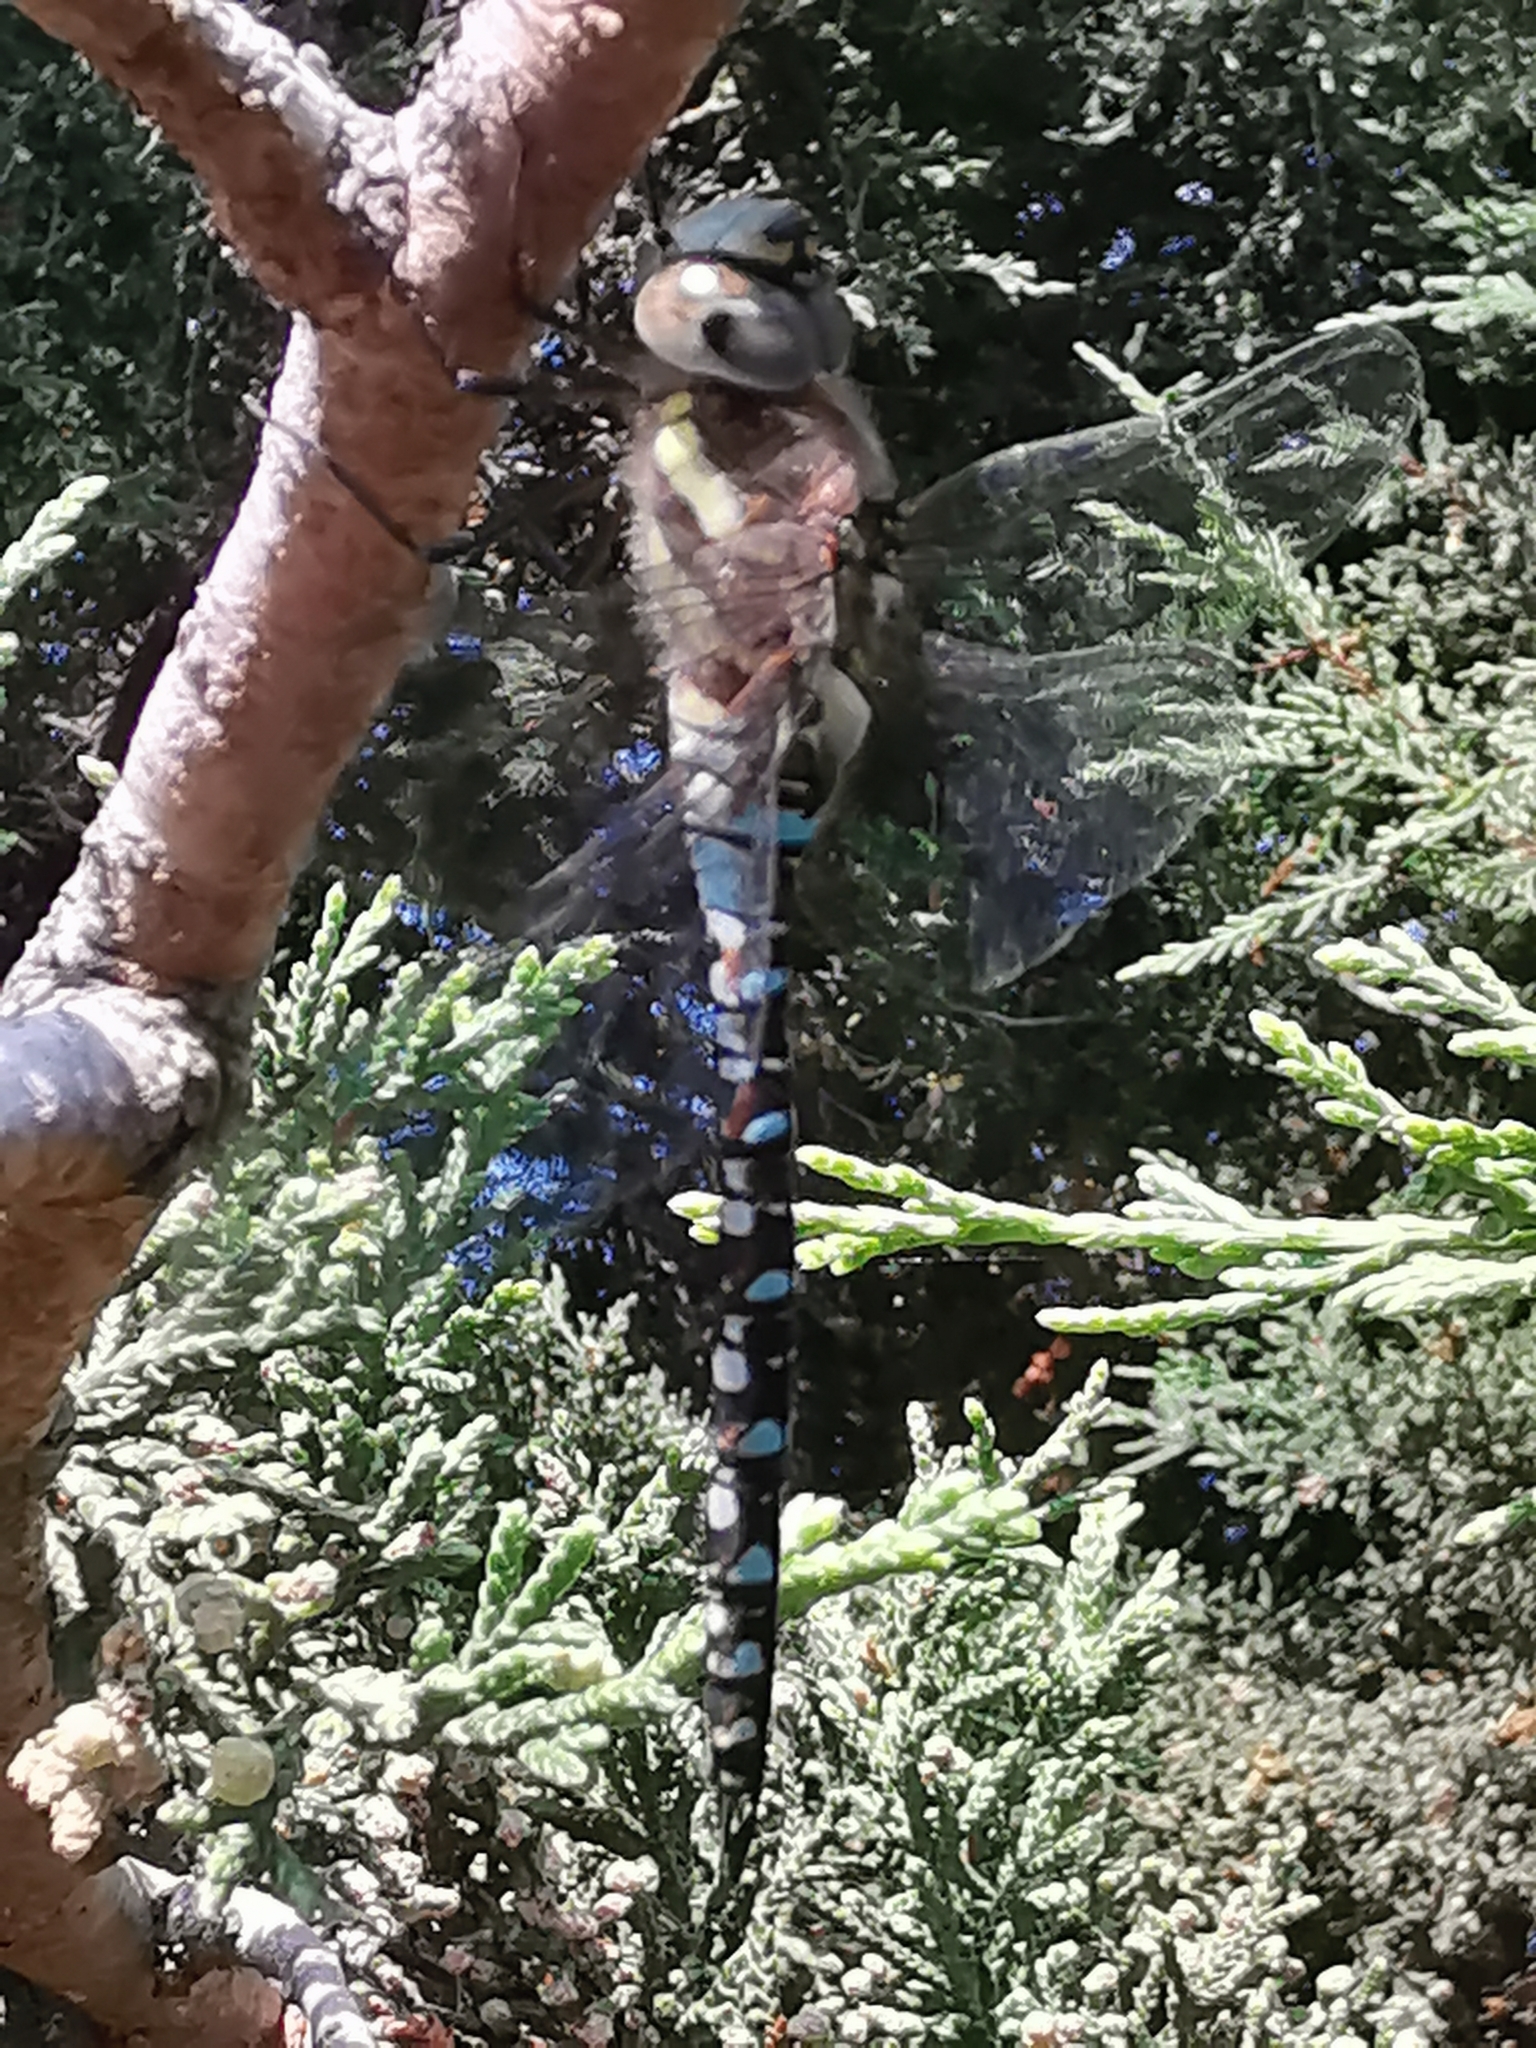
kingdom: Animalia
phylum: Arthropoda
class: Insecta
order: Odonata
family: Aeshnidae
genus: Aeshna
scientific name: Aeshna mixta
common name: Migrant hawker
